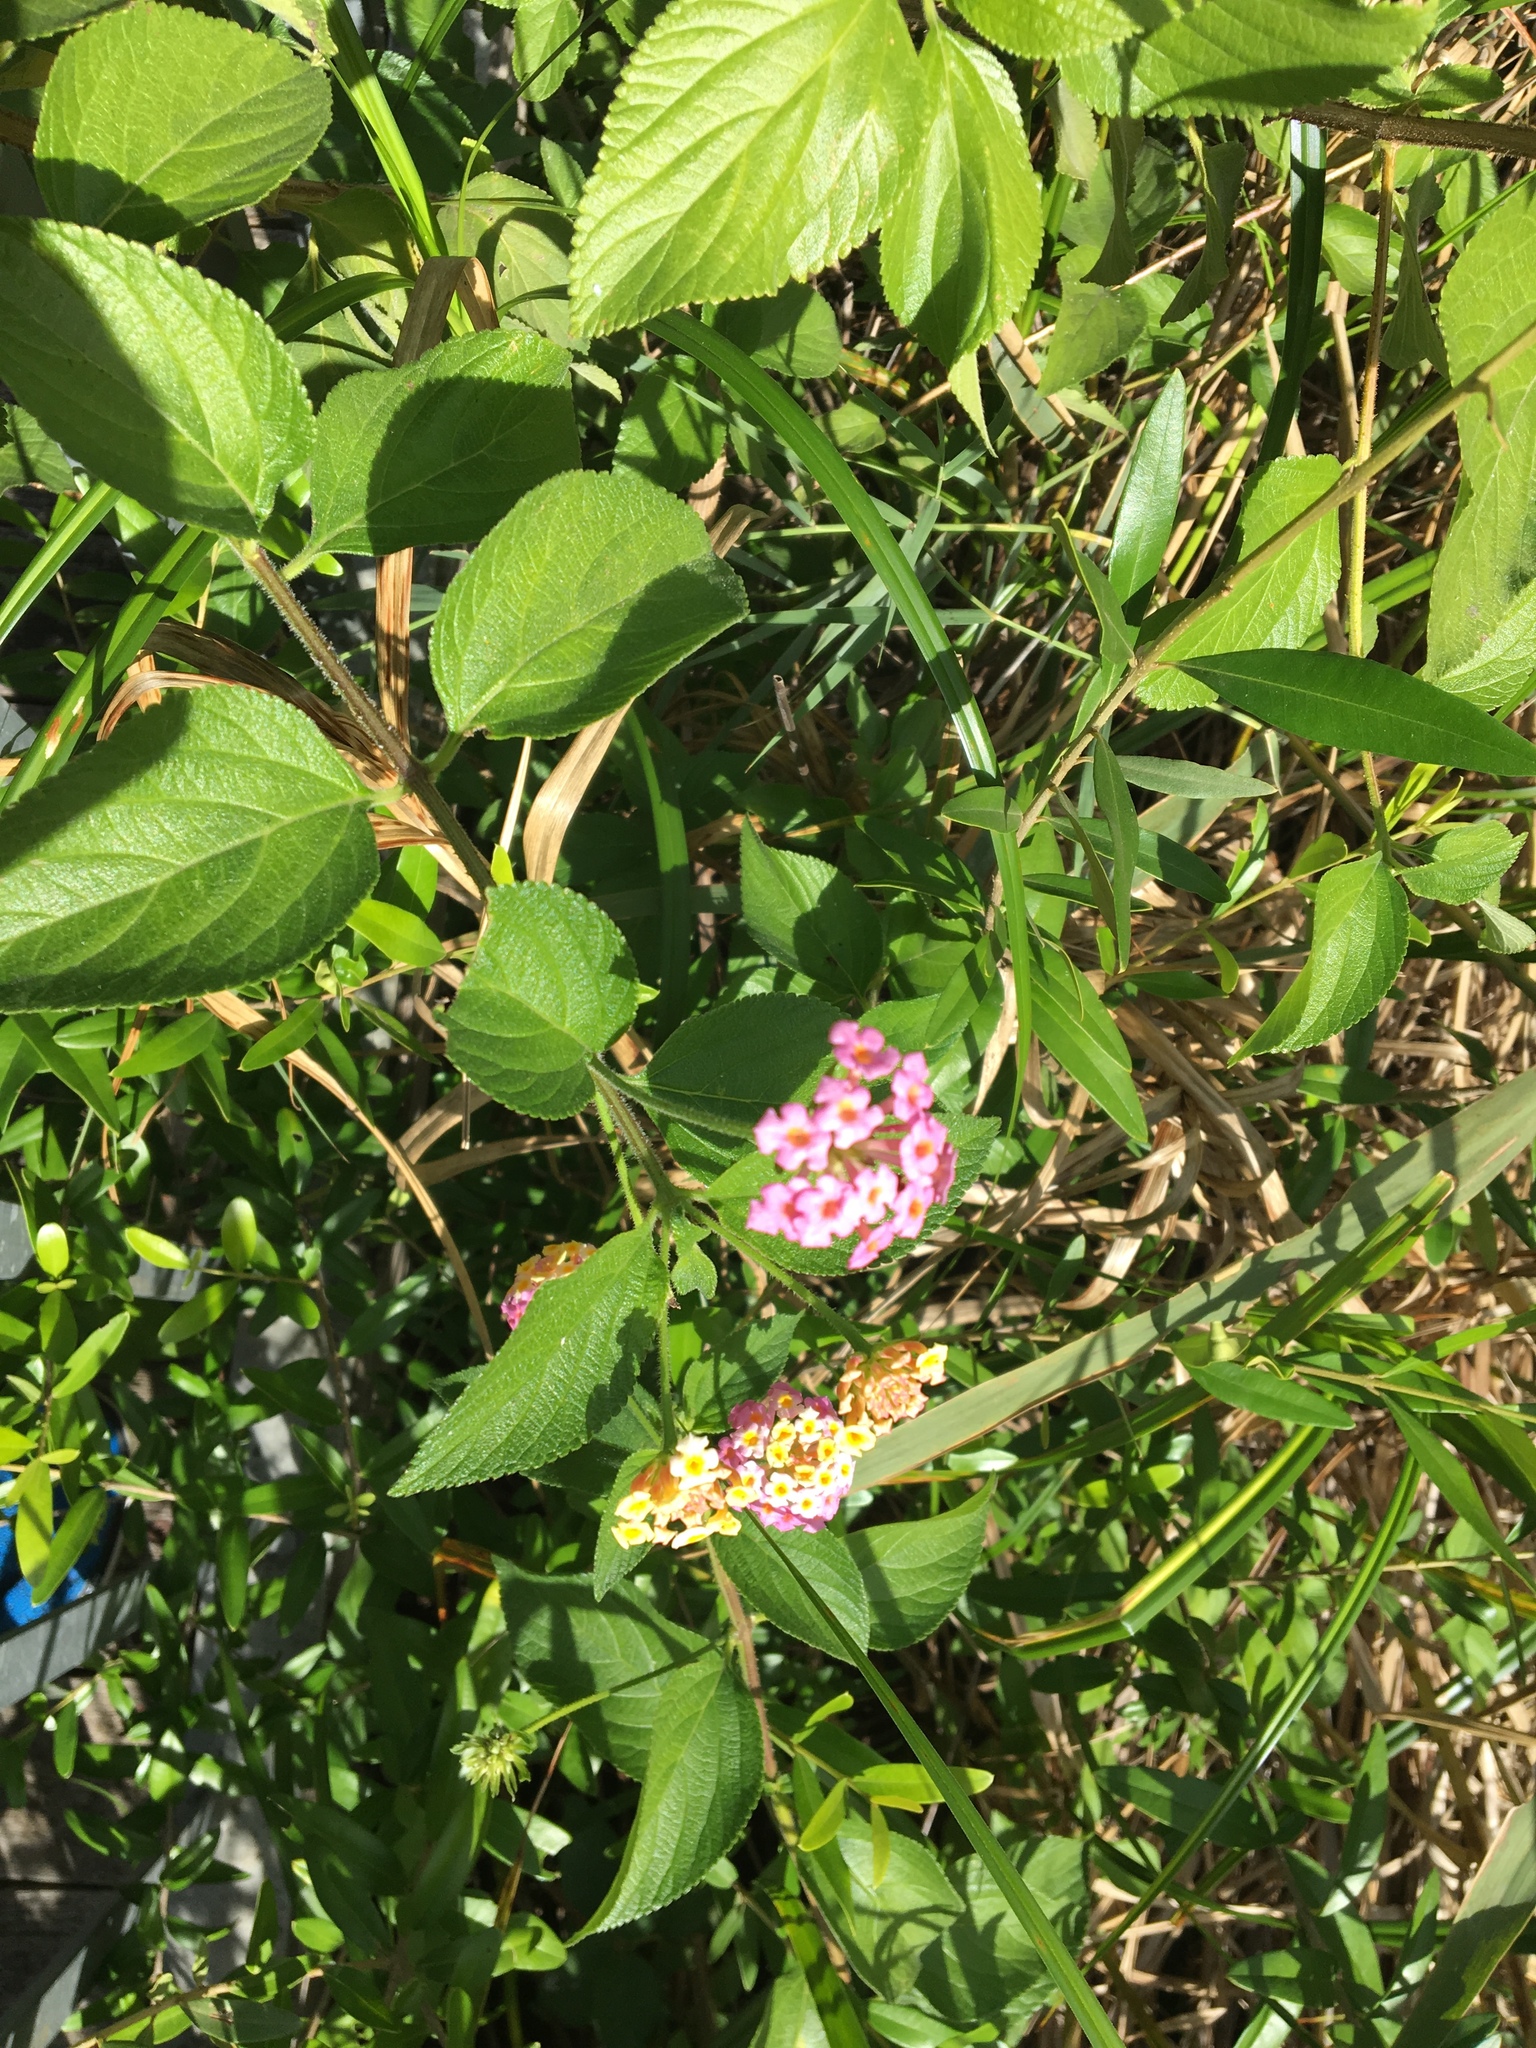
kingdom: Plantae
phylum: Tracheophyta
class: Magnoliopsida
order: Lamiales
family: Verbenaceae
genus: Lantana
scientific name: Lantana camara
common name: Lantana
